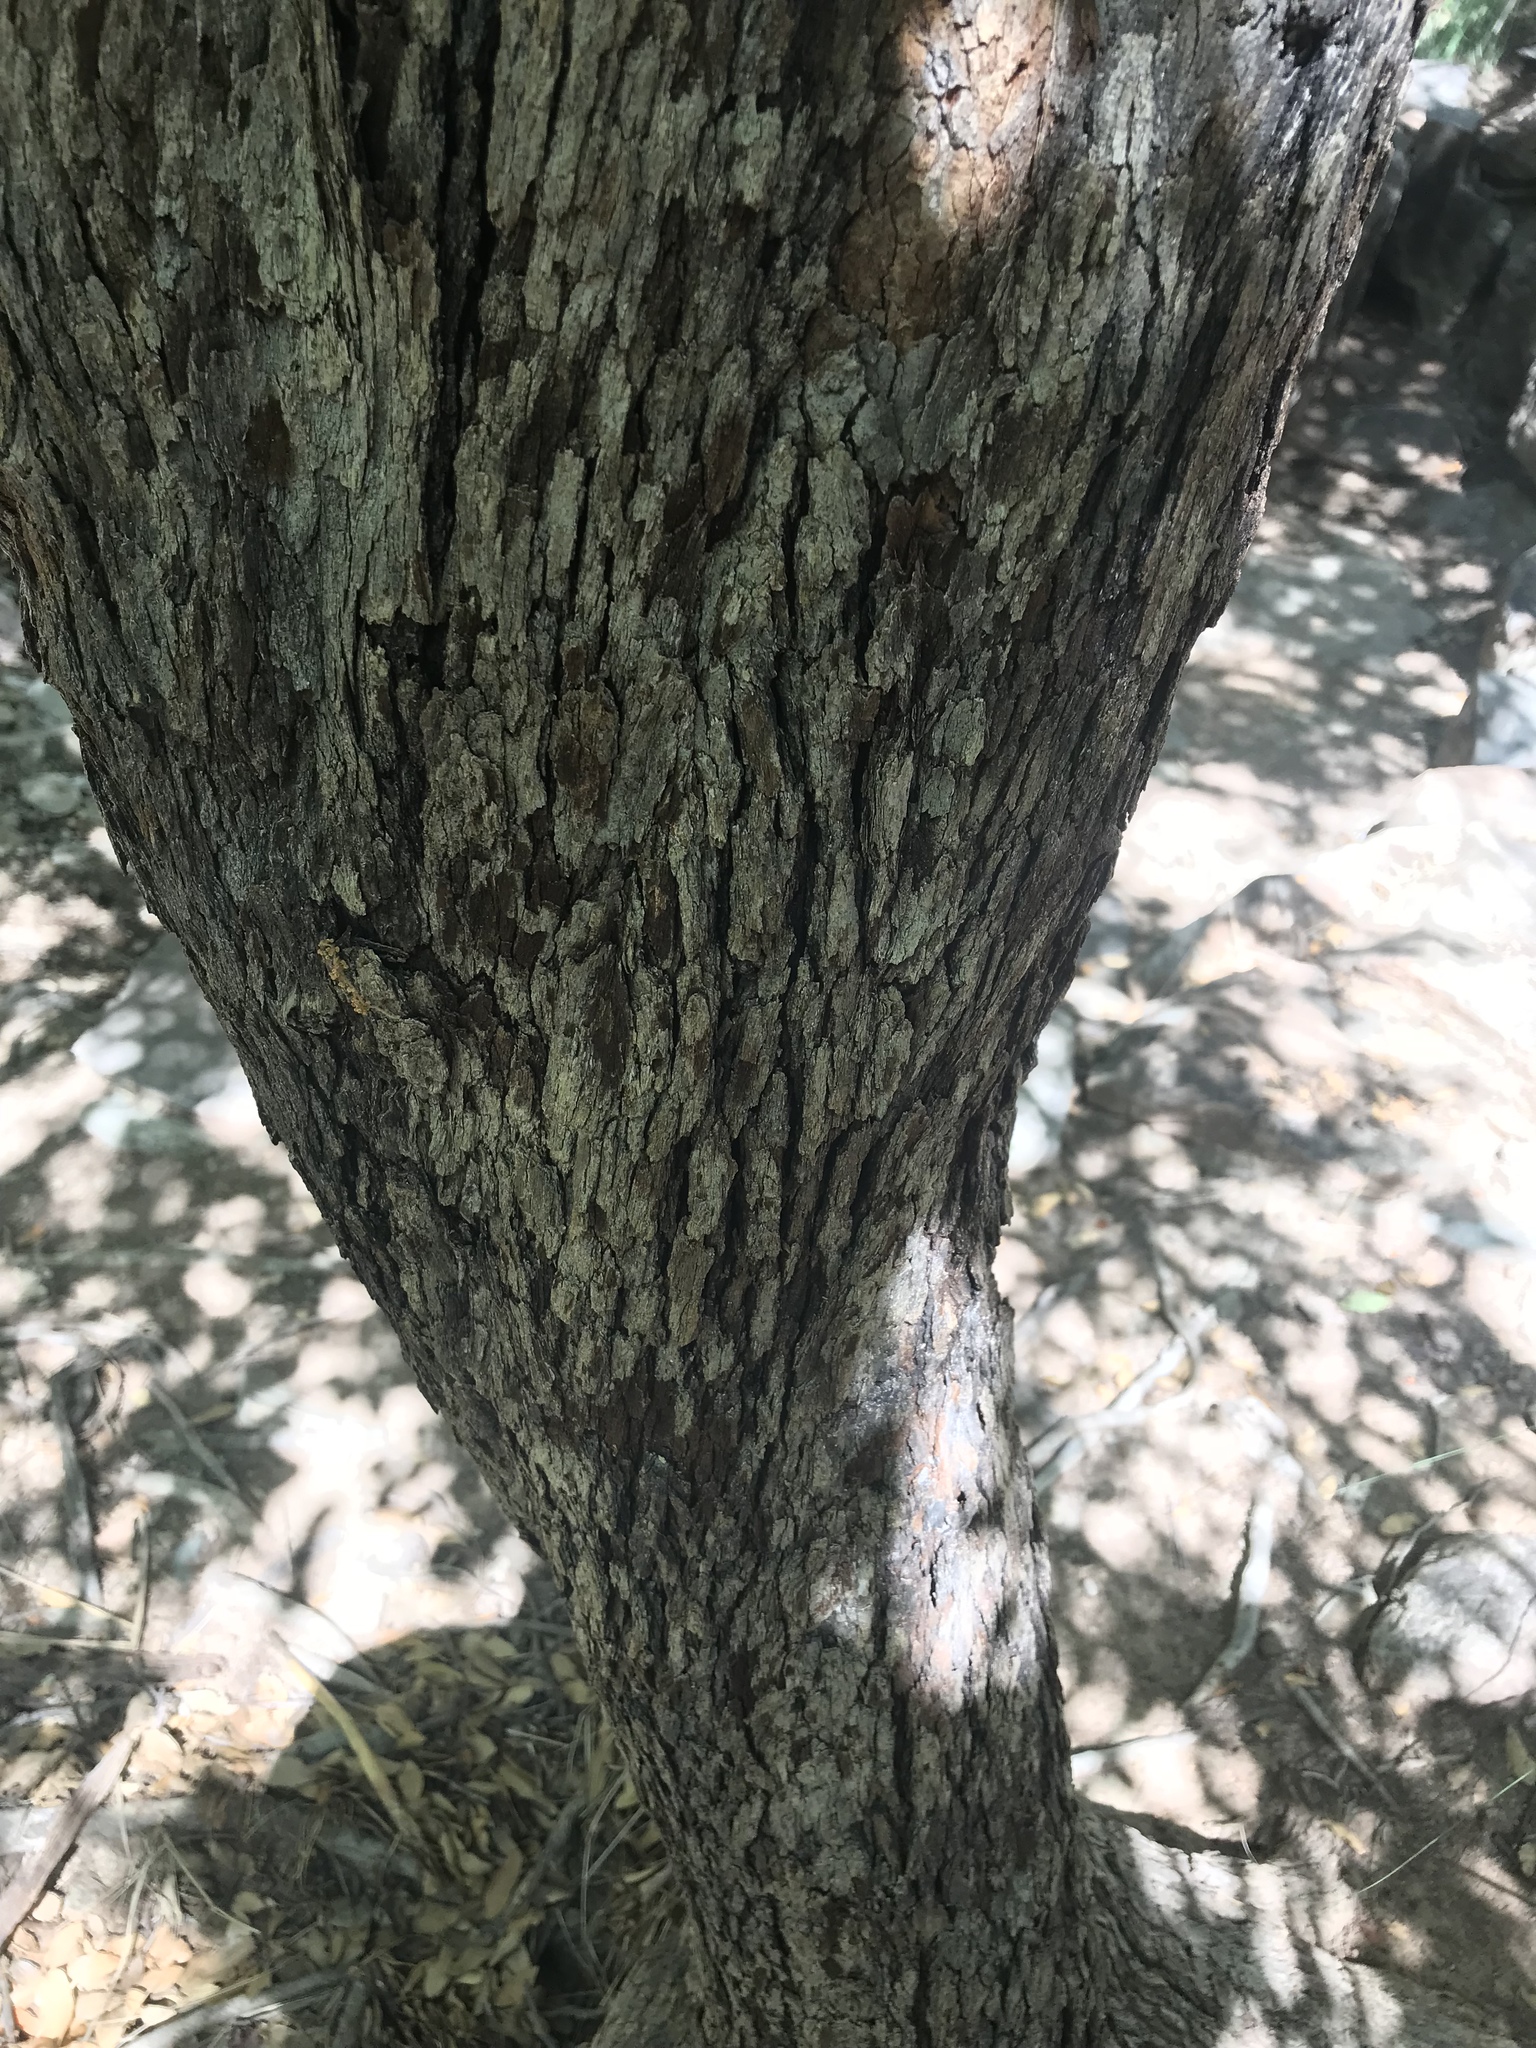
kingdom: Plantae
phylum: Tracheophyta
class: Magnoliopsida
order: Rosales
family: Rosaceae
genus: Crataegus
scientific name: Crataegus tracyi
